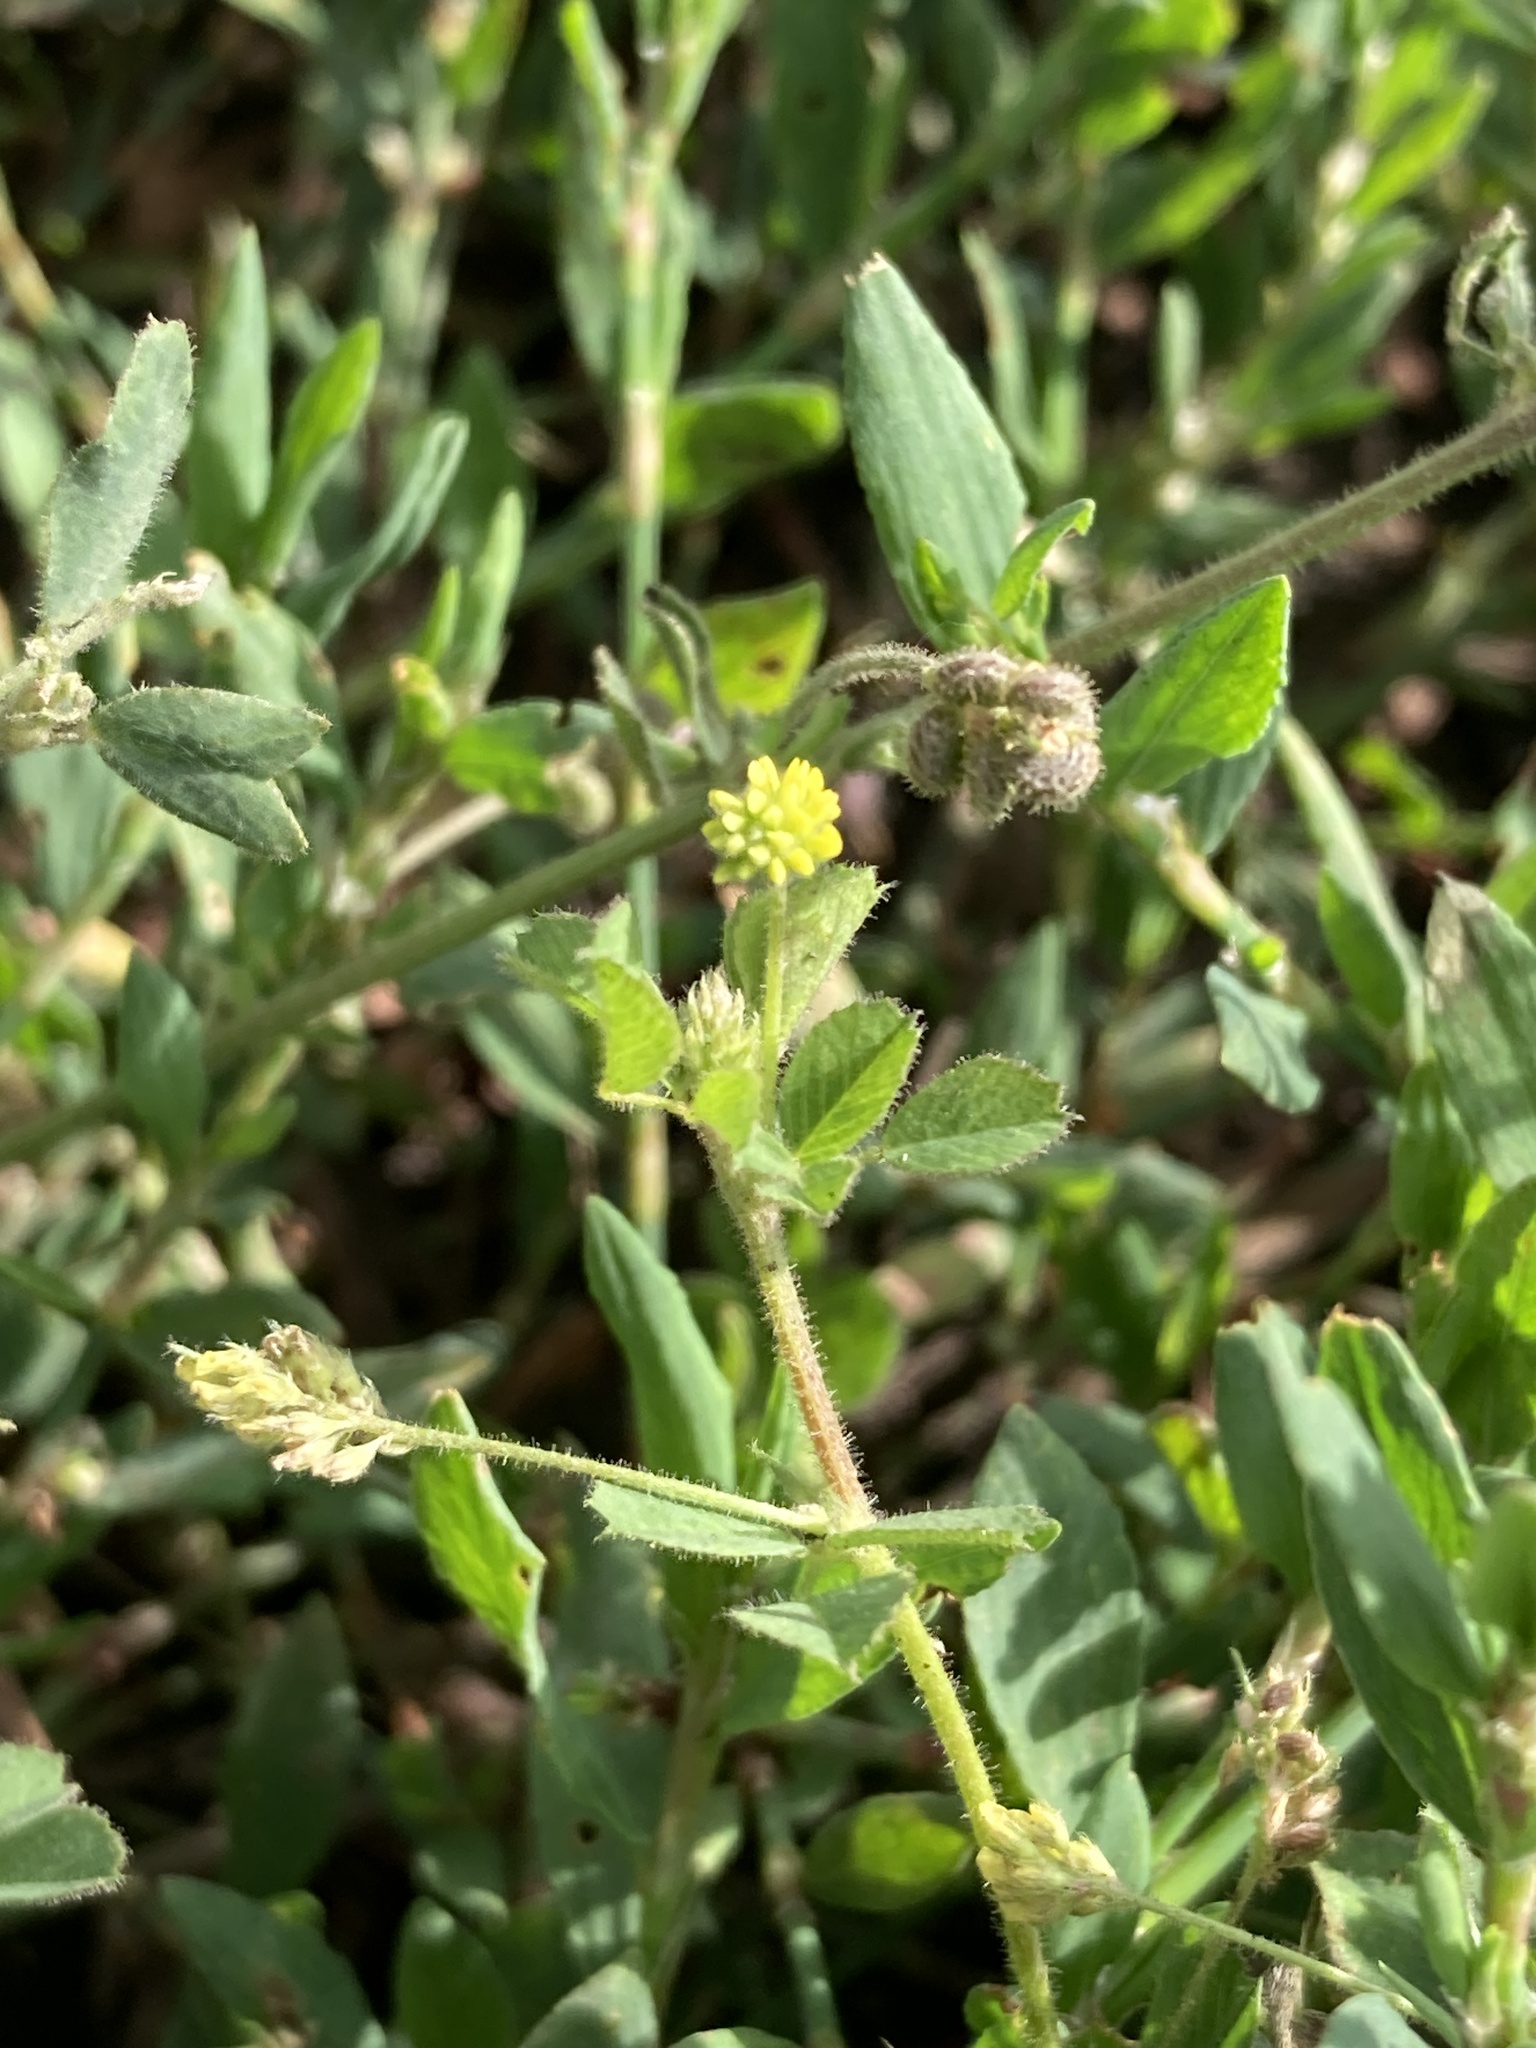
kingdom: Plantae
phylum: Tracheophyta
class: Magnoliopsida
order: Fabales
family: Fabaceae
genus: Medicago
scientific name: Medicago lupulina
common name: Black medick
